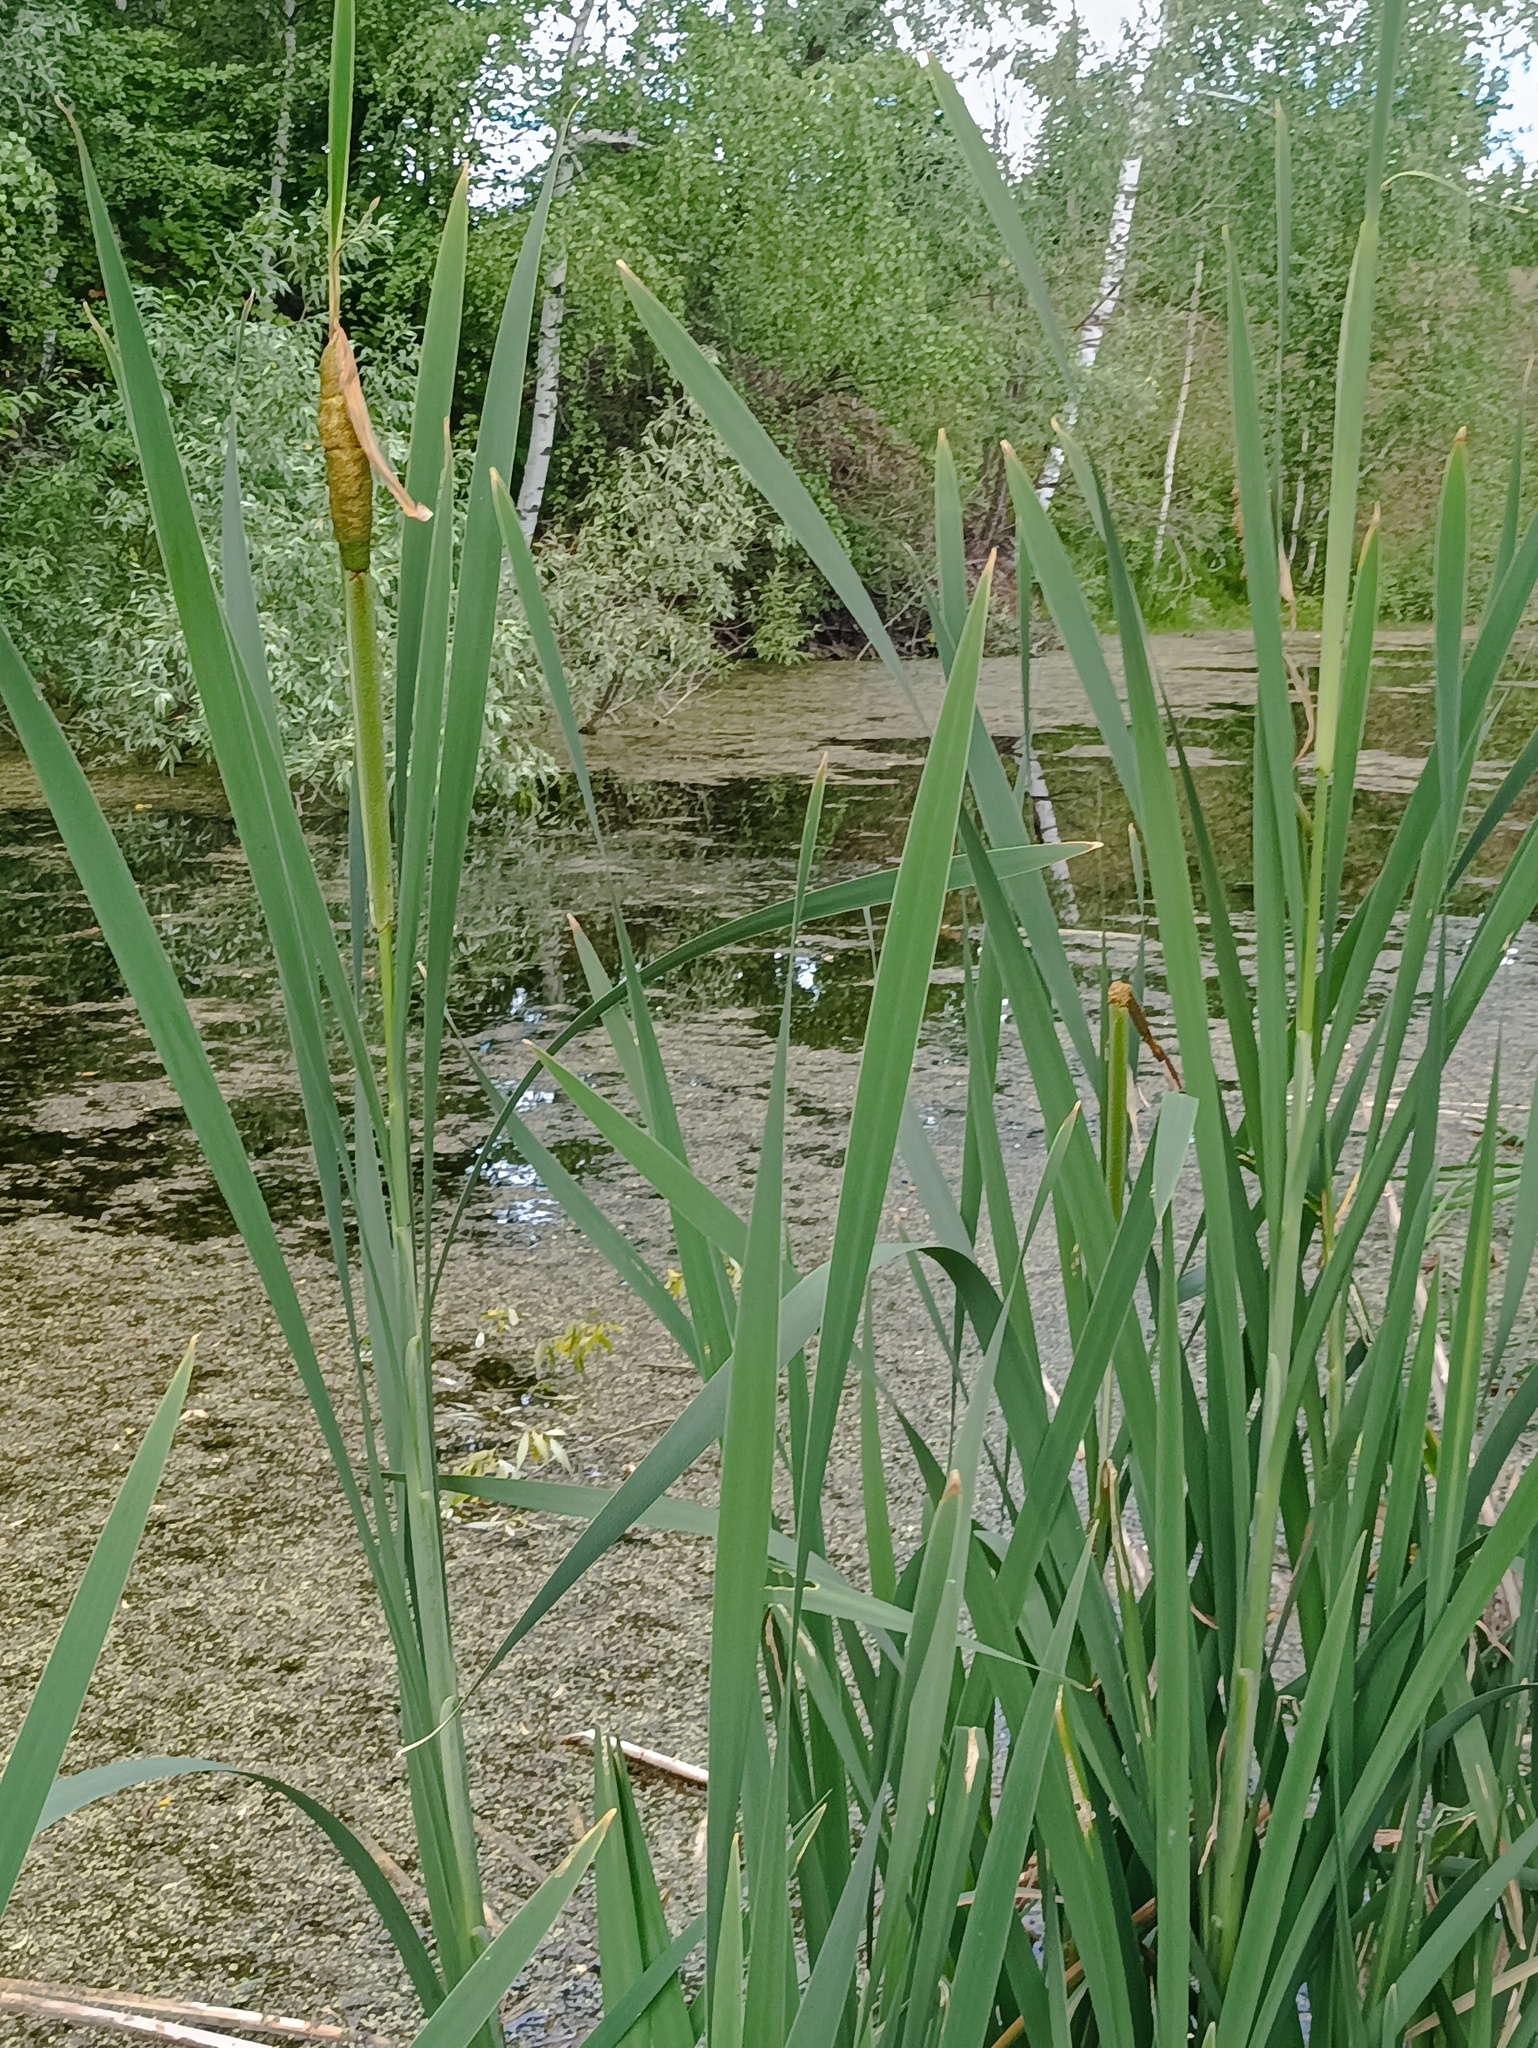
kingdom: Plantae
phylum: Tracheophyta
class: Liliopsida
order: Poales
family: Typhaceae
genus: Typha
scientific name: Typha latifolia
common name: Broadleaf cattail
